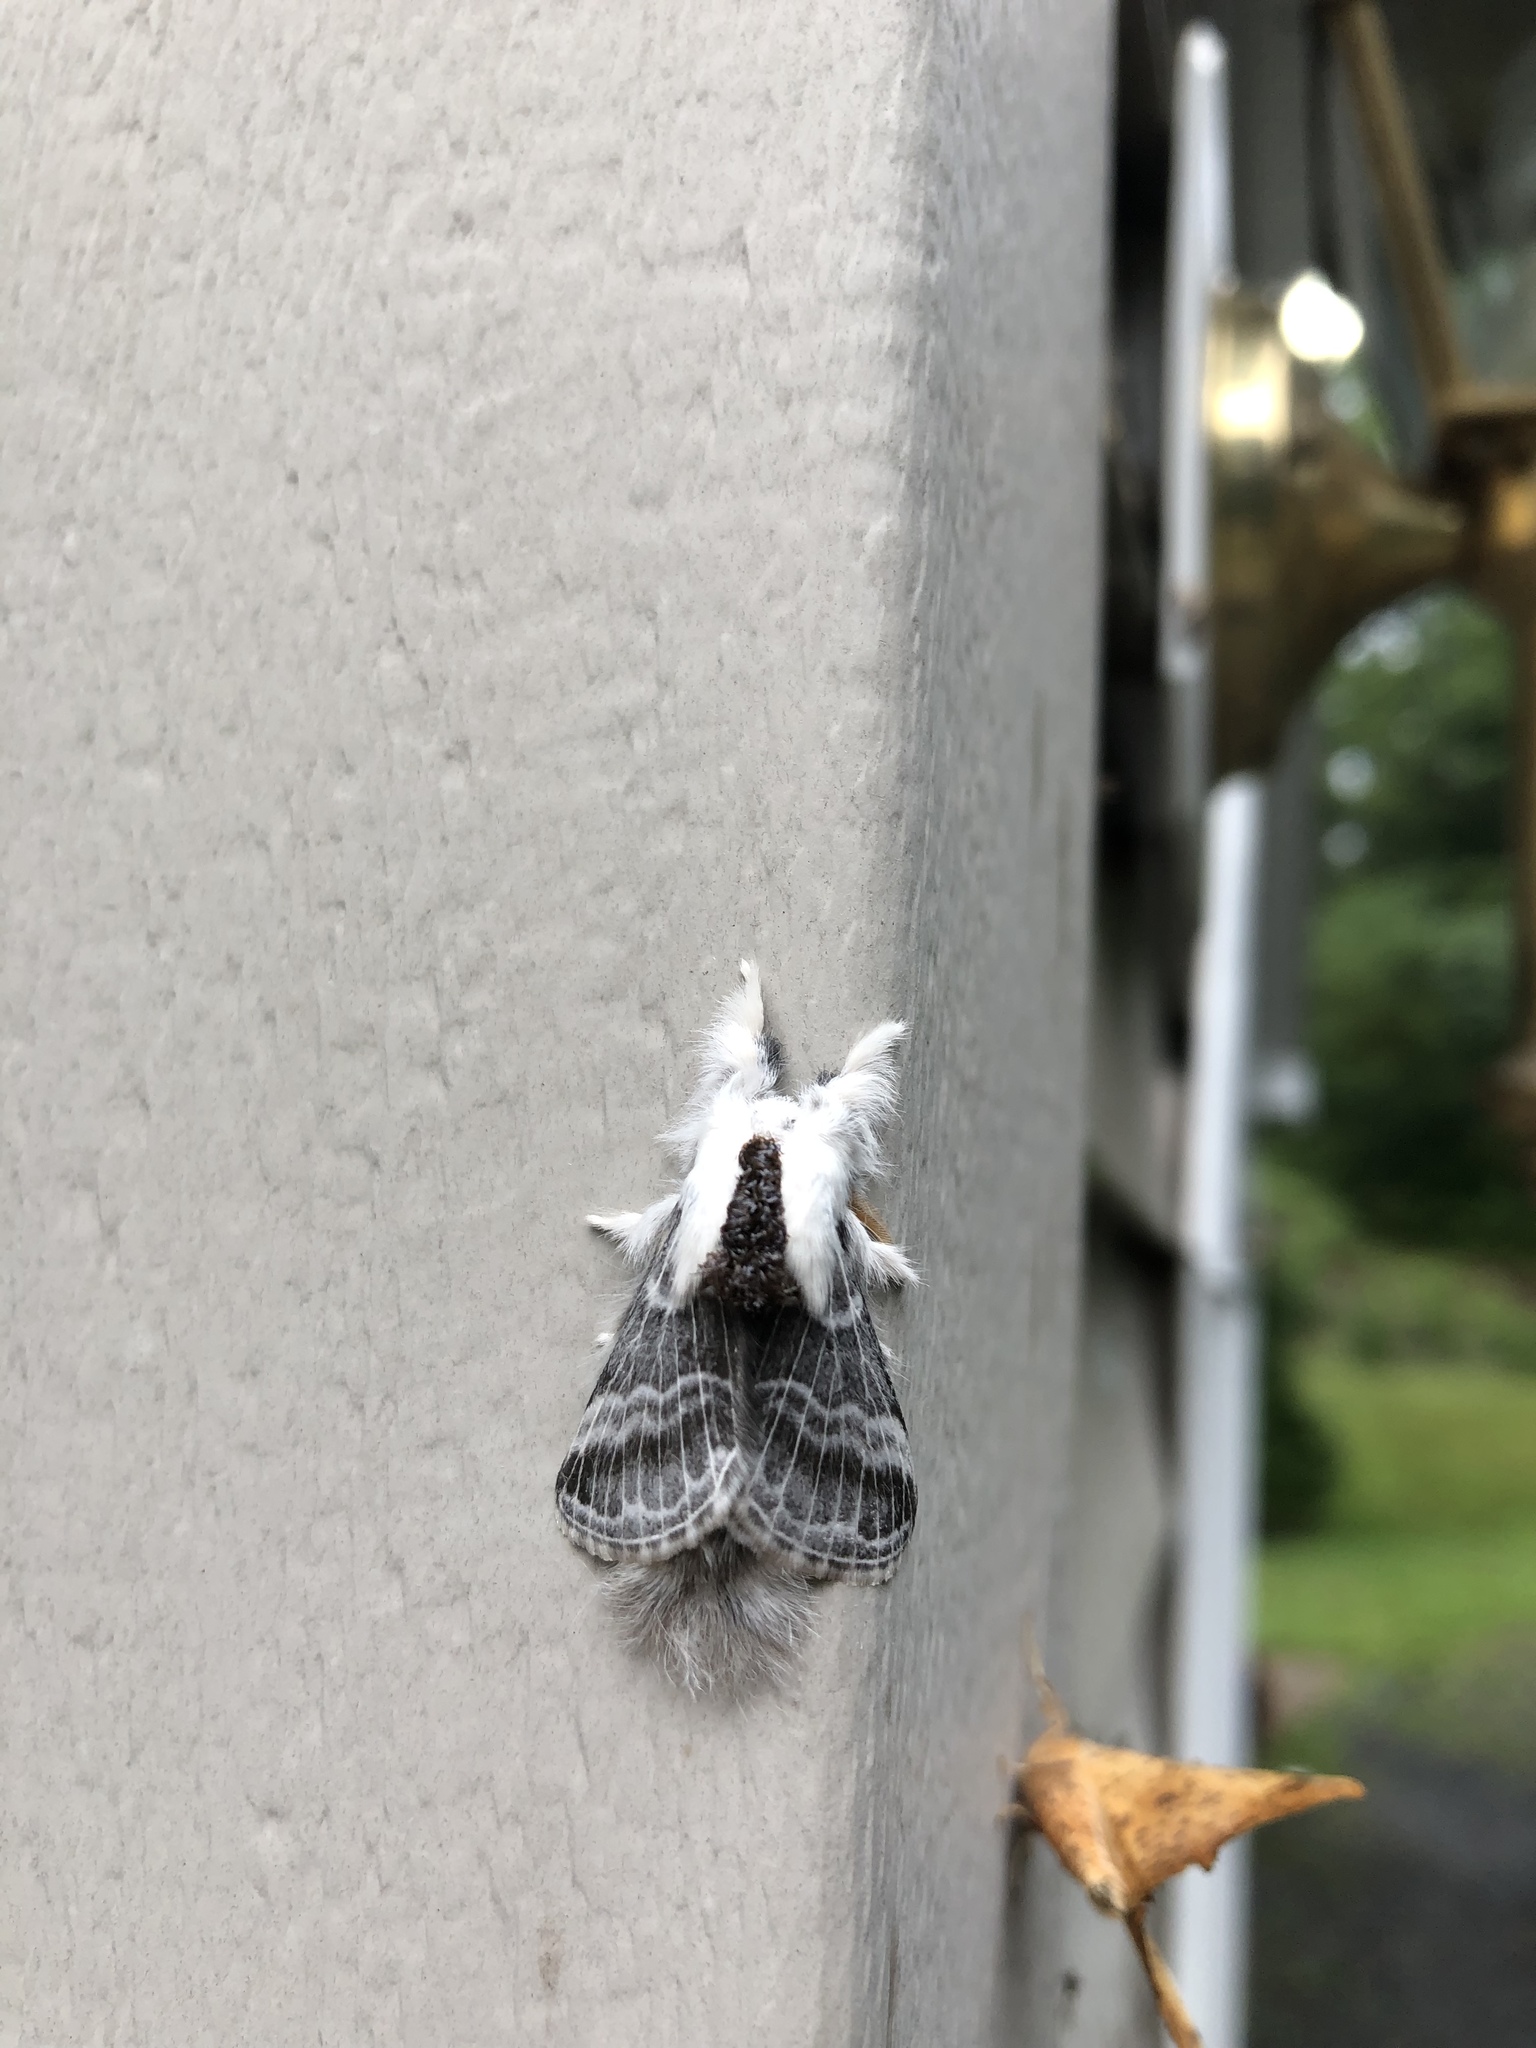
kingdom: Animalia
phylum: Arthropoda
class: Insecta
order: Lepidoptera
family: Lasiocampidae
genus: Tolype
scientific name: Tolype velleda
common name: Large tolype moth
